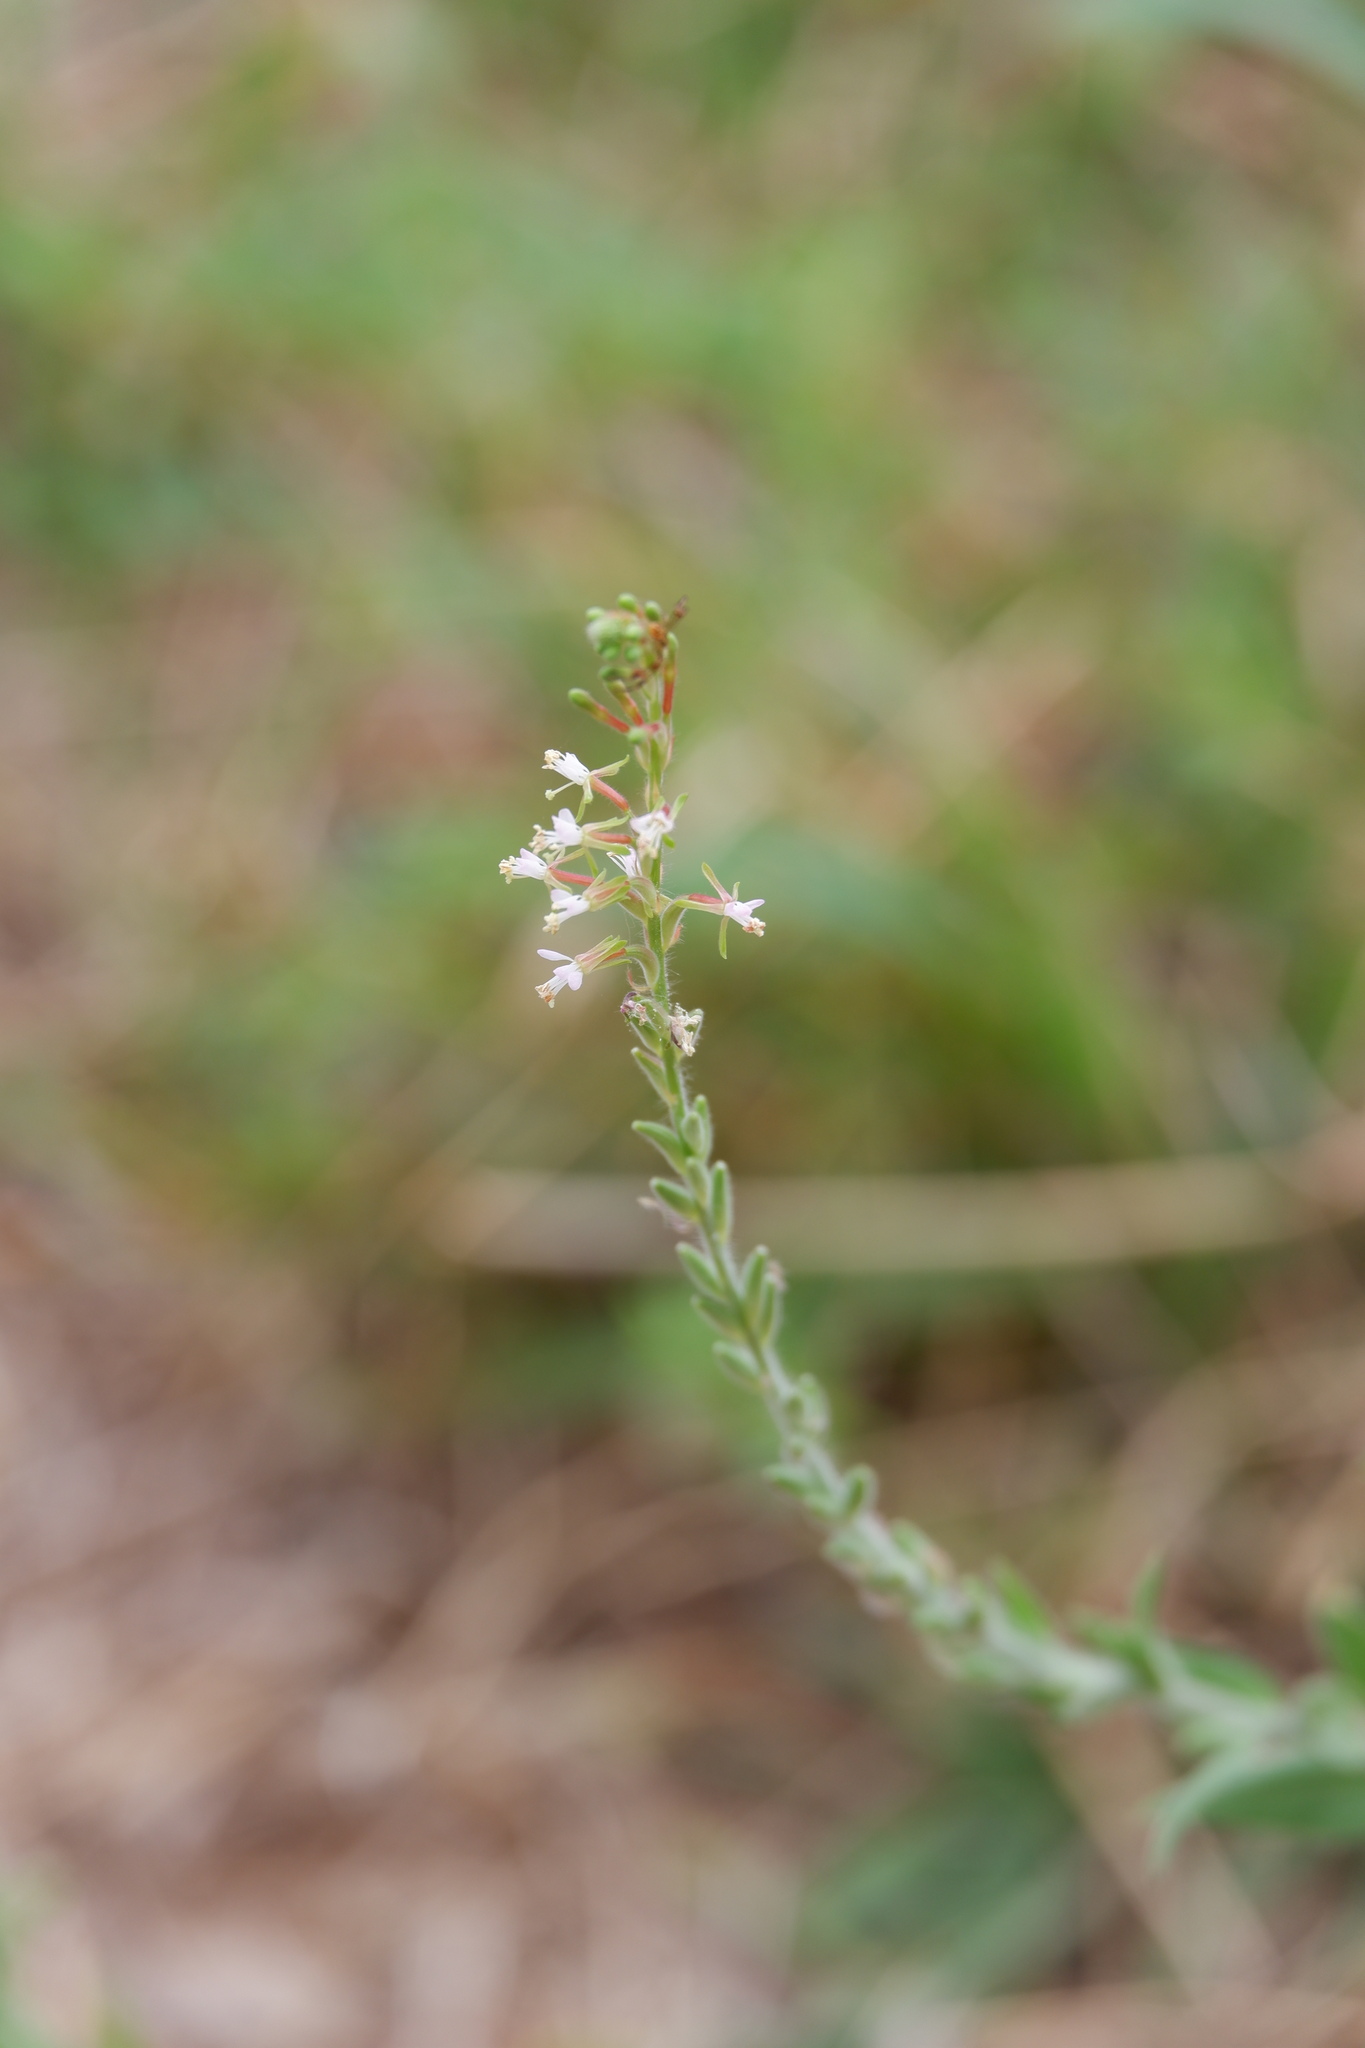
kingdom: Plantae
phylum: Tracheophyta
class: Magnoliopsida
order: Myrtales
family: Onagraceae
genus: Oenothera
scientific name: Oenothera curtiflora
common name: Velvetweed
